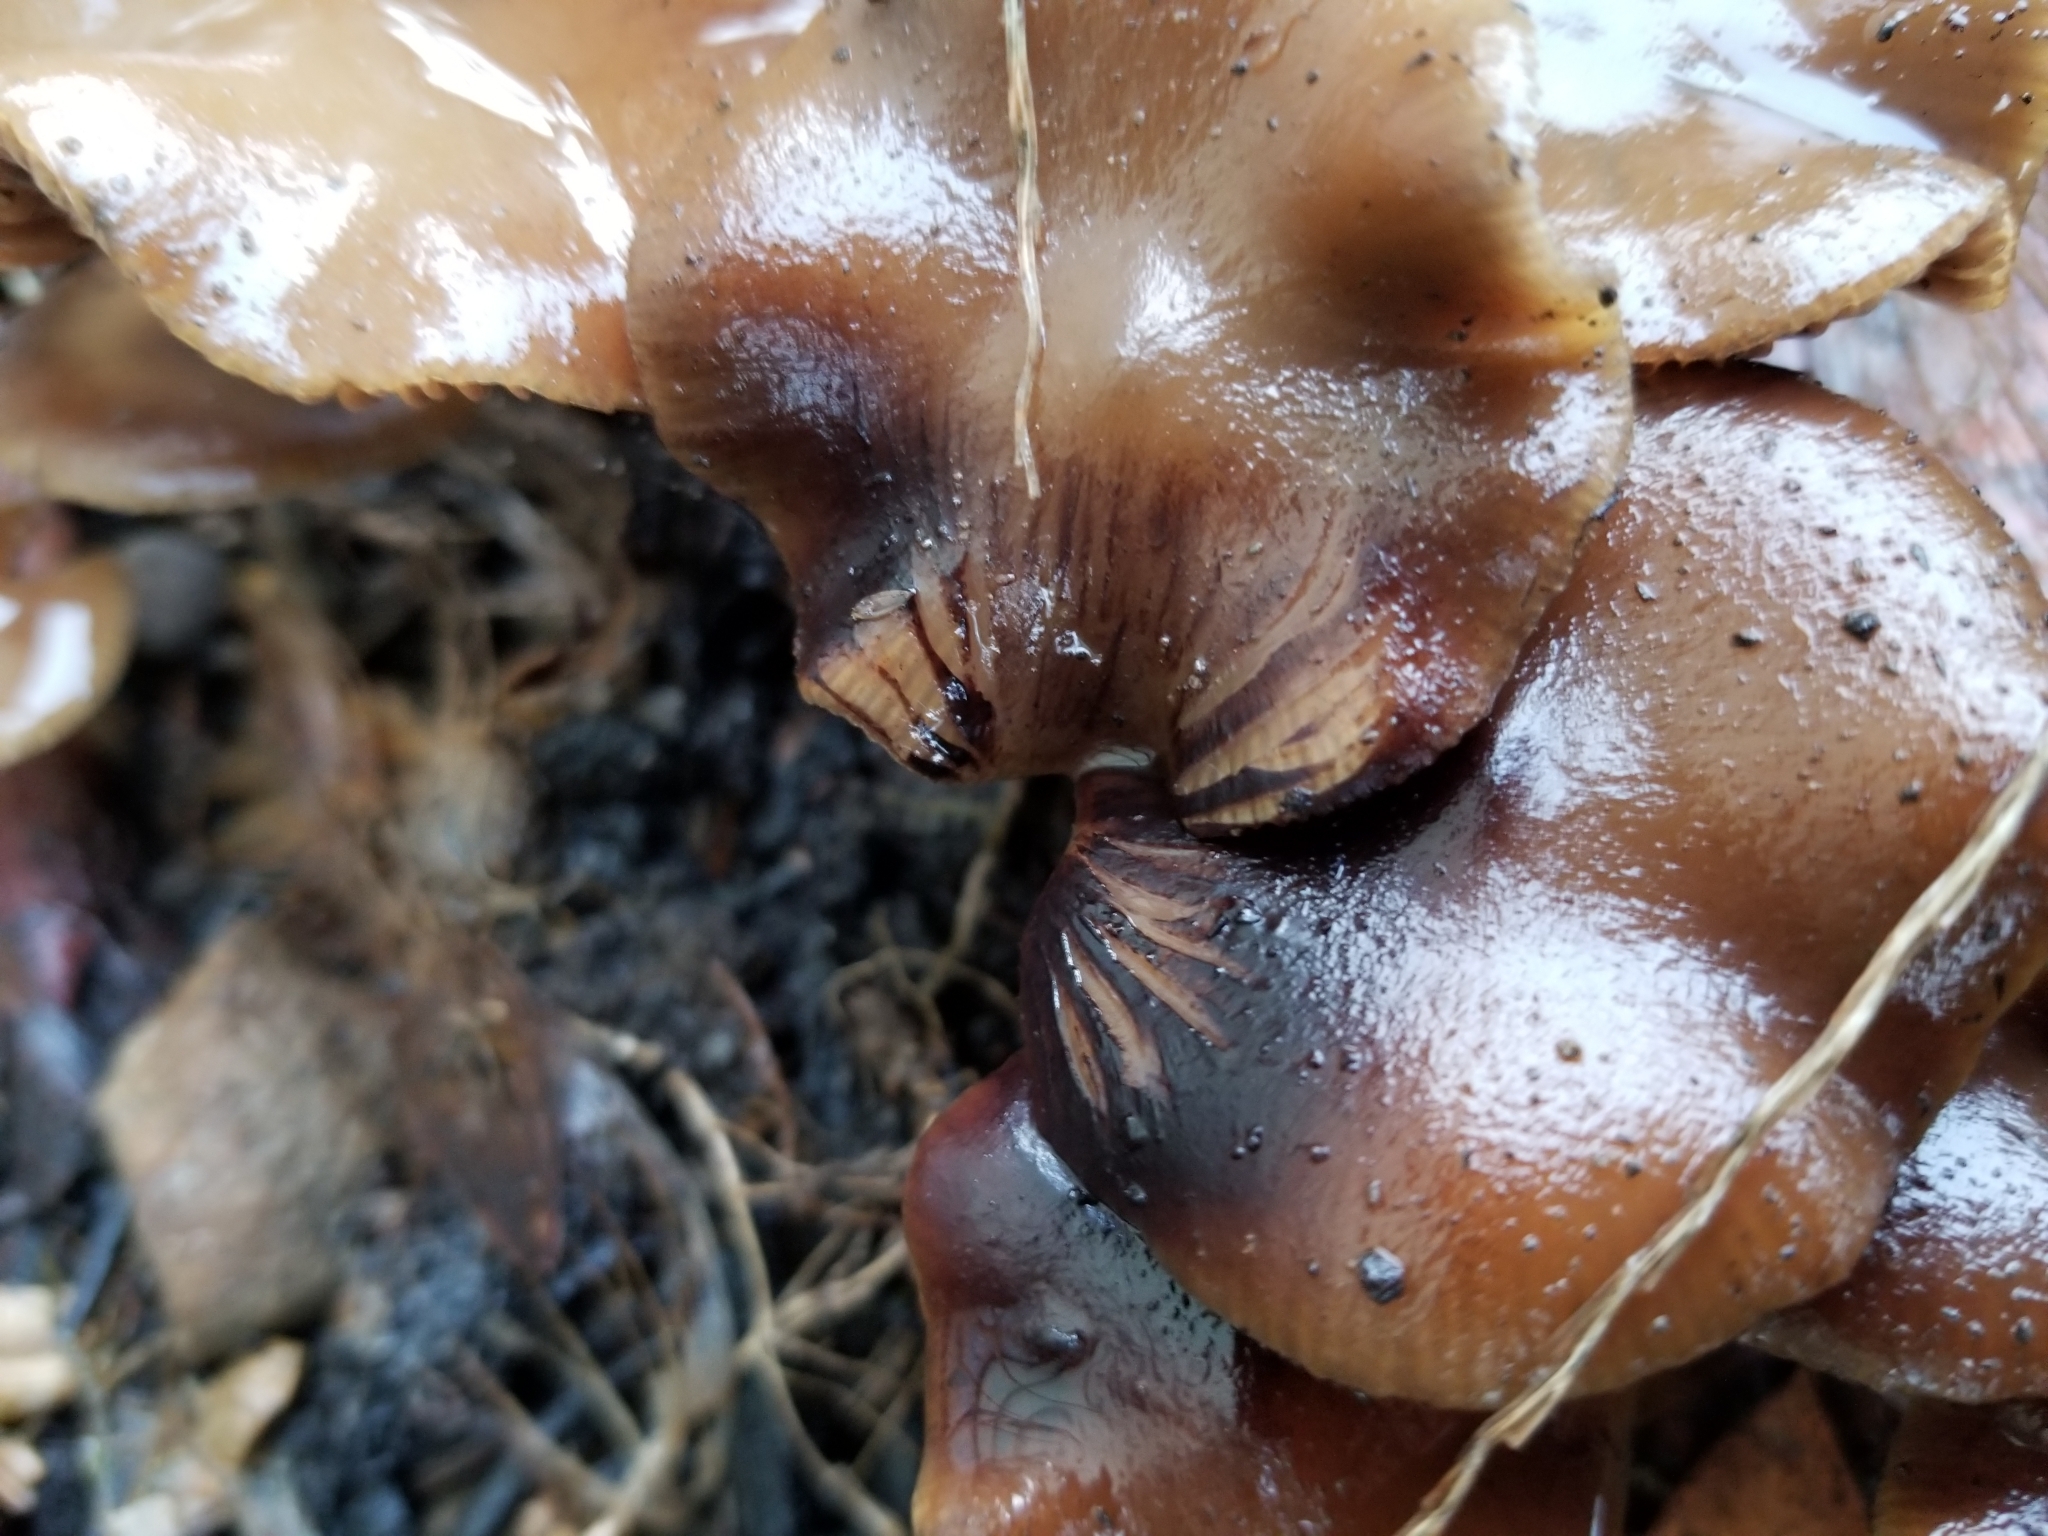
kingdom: Fungi
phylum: Basidiomycota
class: Agaricomycetes
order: Agaricales
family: Hymenogastraceae
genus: Psilocybe
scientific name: Psilocybe cyanescens
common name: Blueleg brownie
